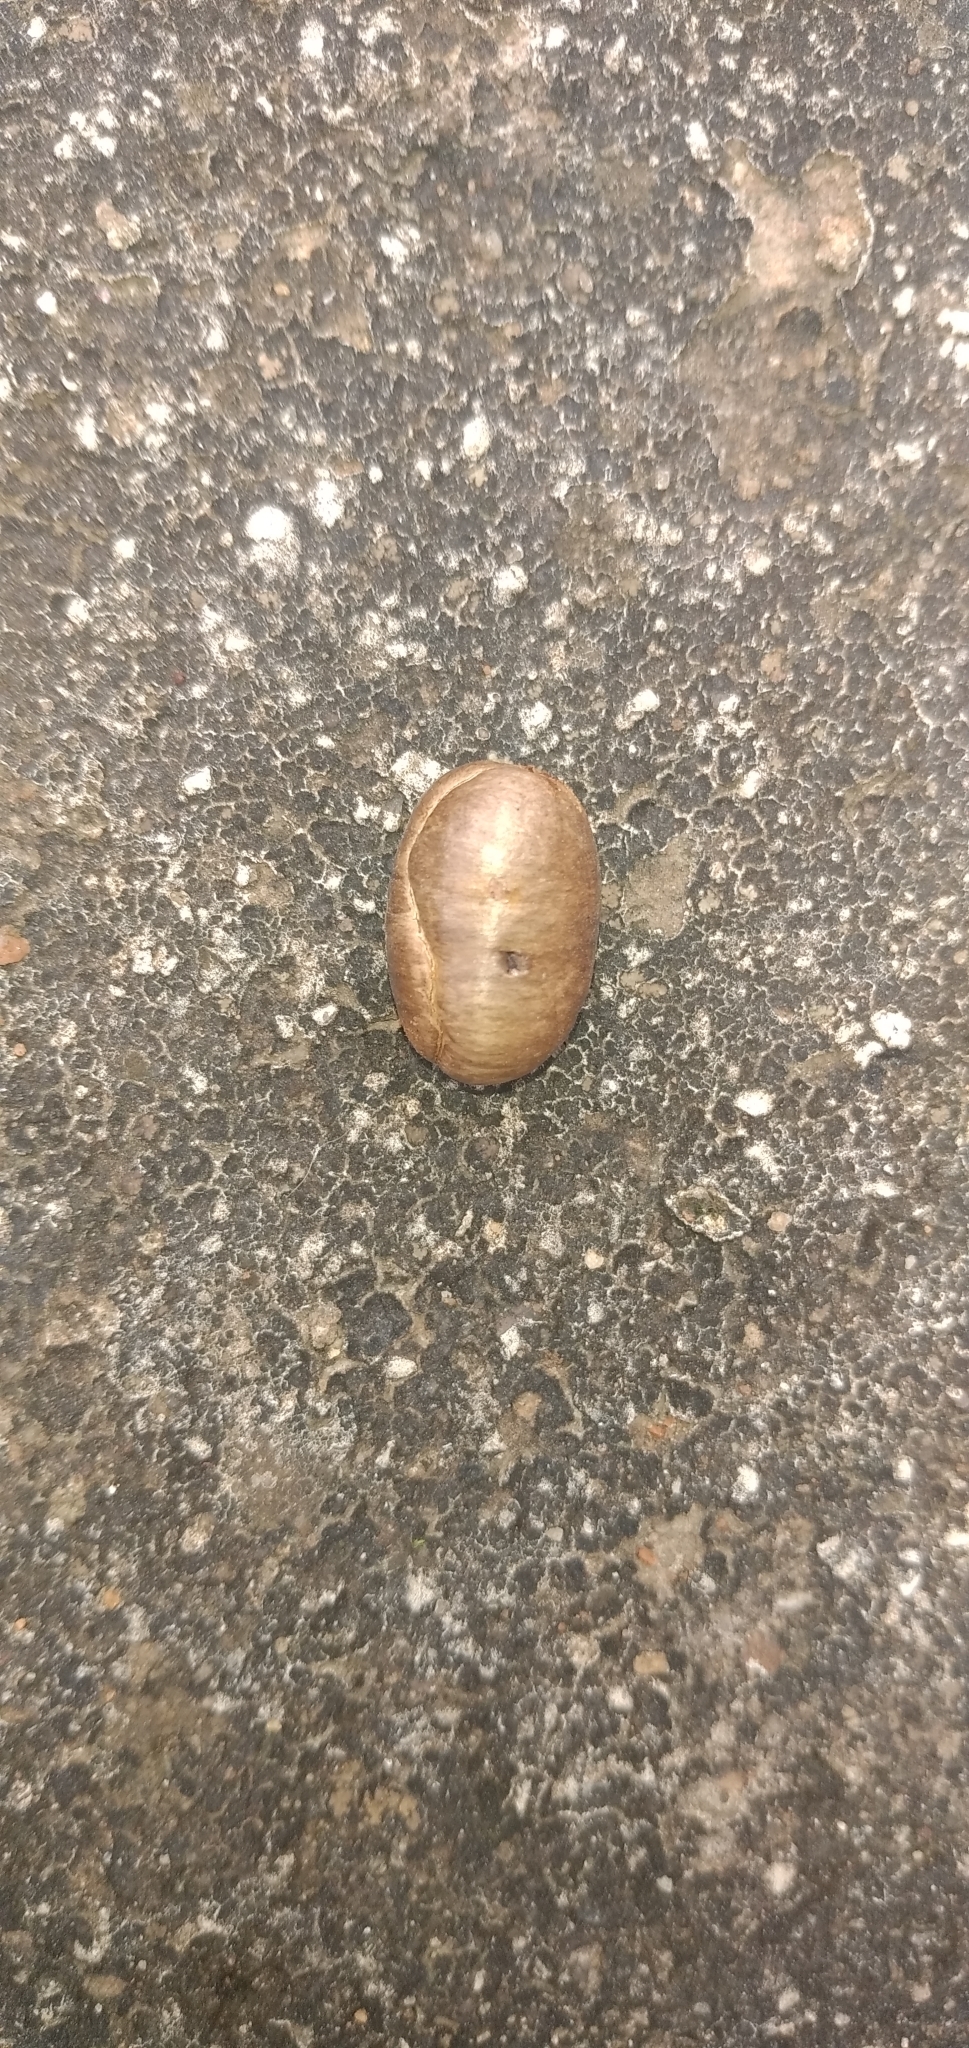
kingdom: Plantae
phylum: Tracheophyta
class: Magnoliopsida
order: Magnoliales
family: Annonaceae
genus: Polyalthia
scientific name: Polyalthia longifolia
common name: Cemetery-tree
